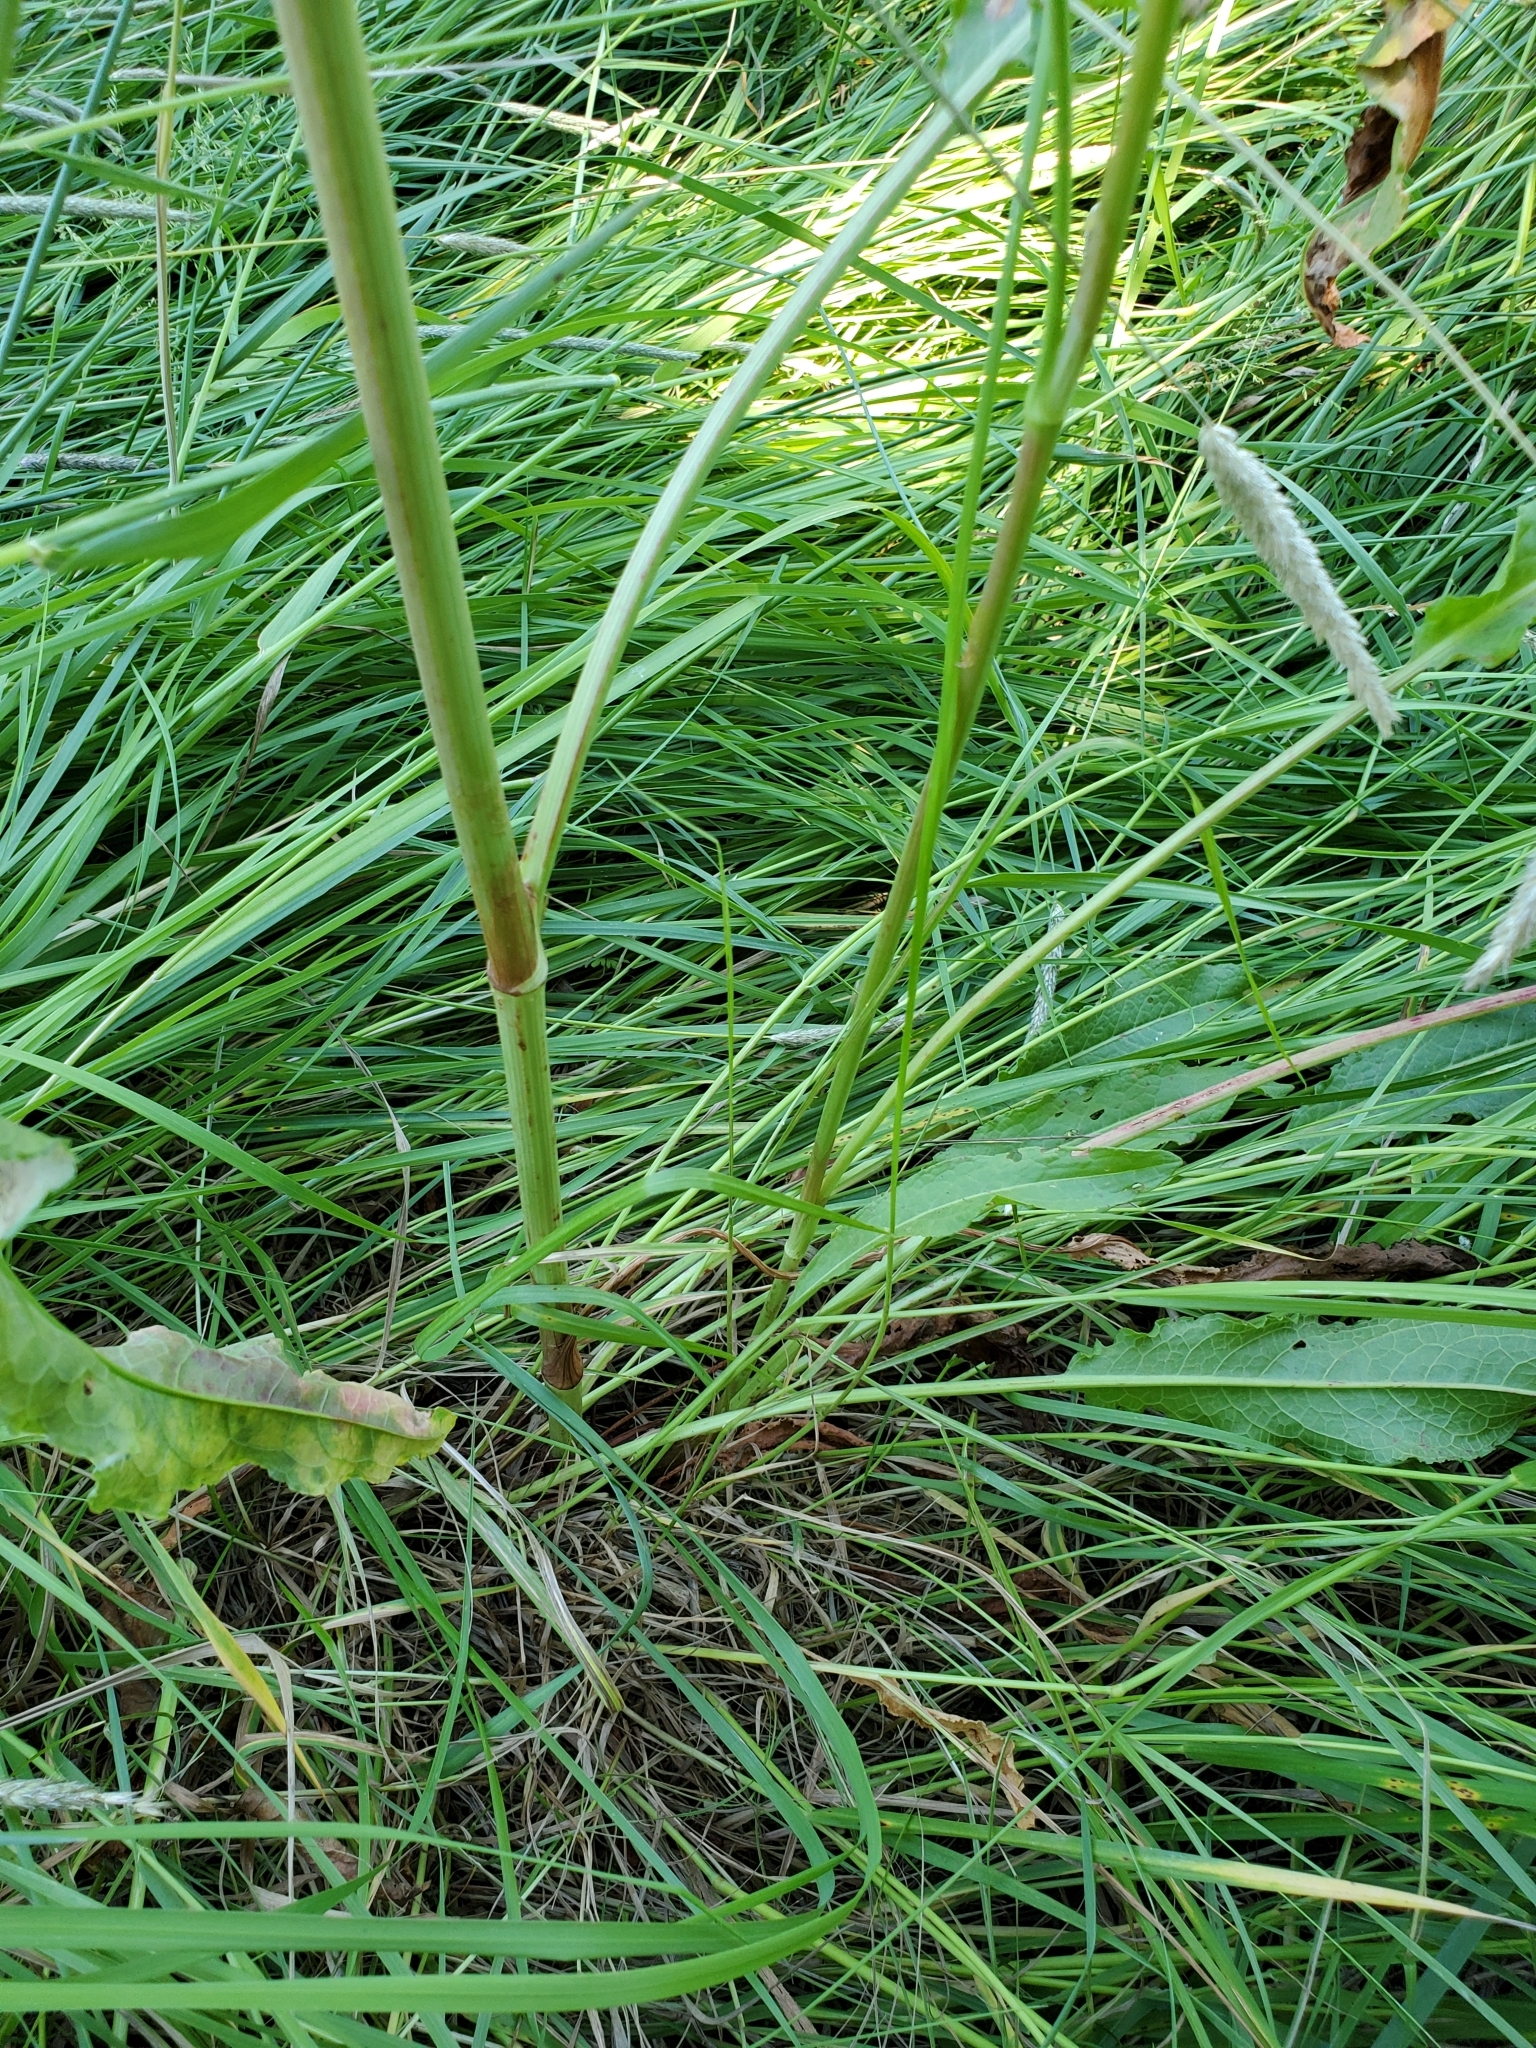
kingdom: Plantae
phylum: Tracheophyta
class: Magnoliopsida
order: Caryophyllales
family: Polygonaceae
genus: Rumex
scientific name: Rumex crispus
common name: Curled dock
